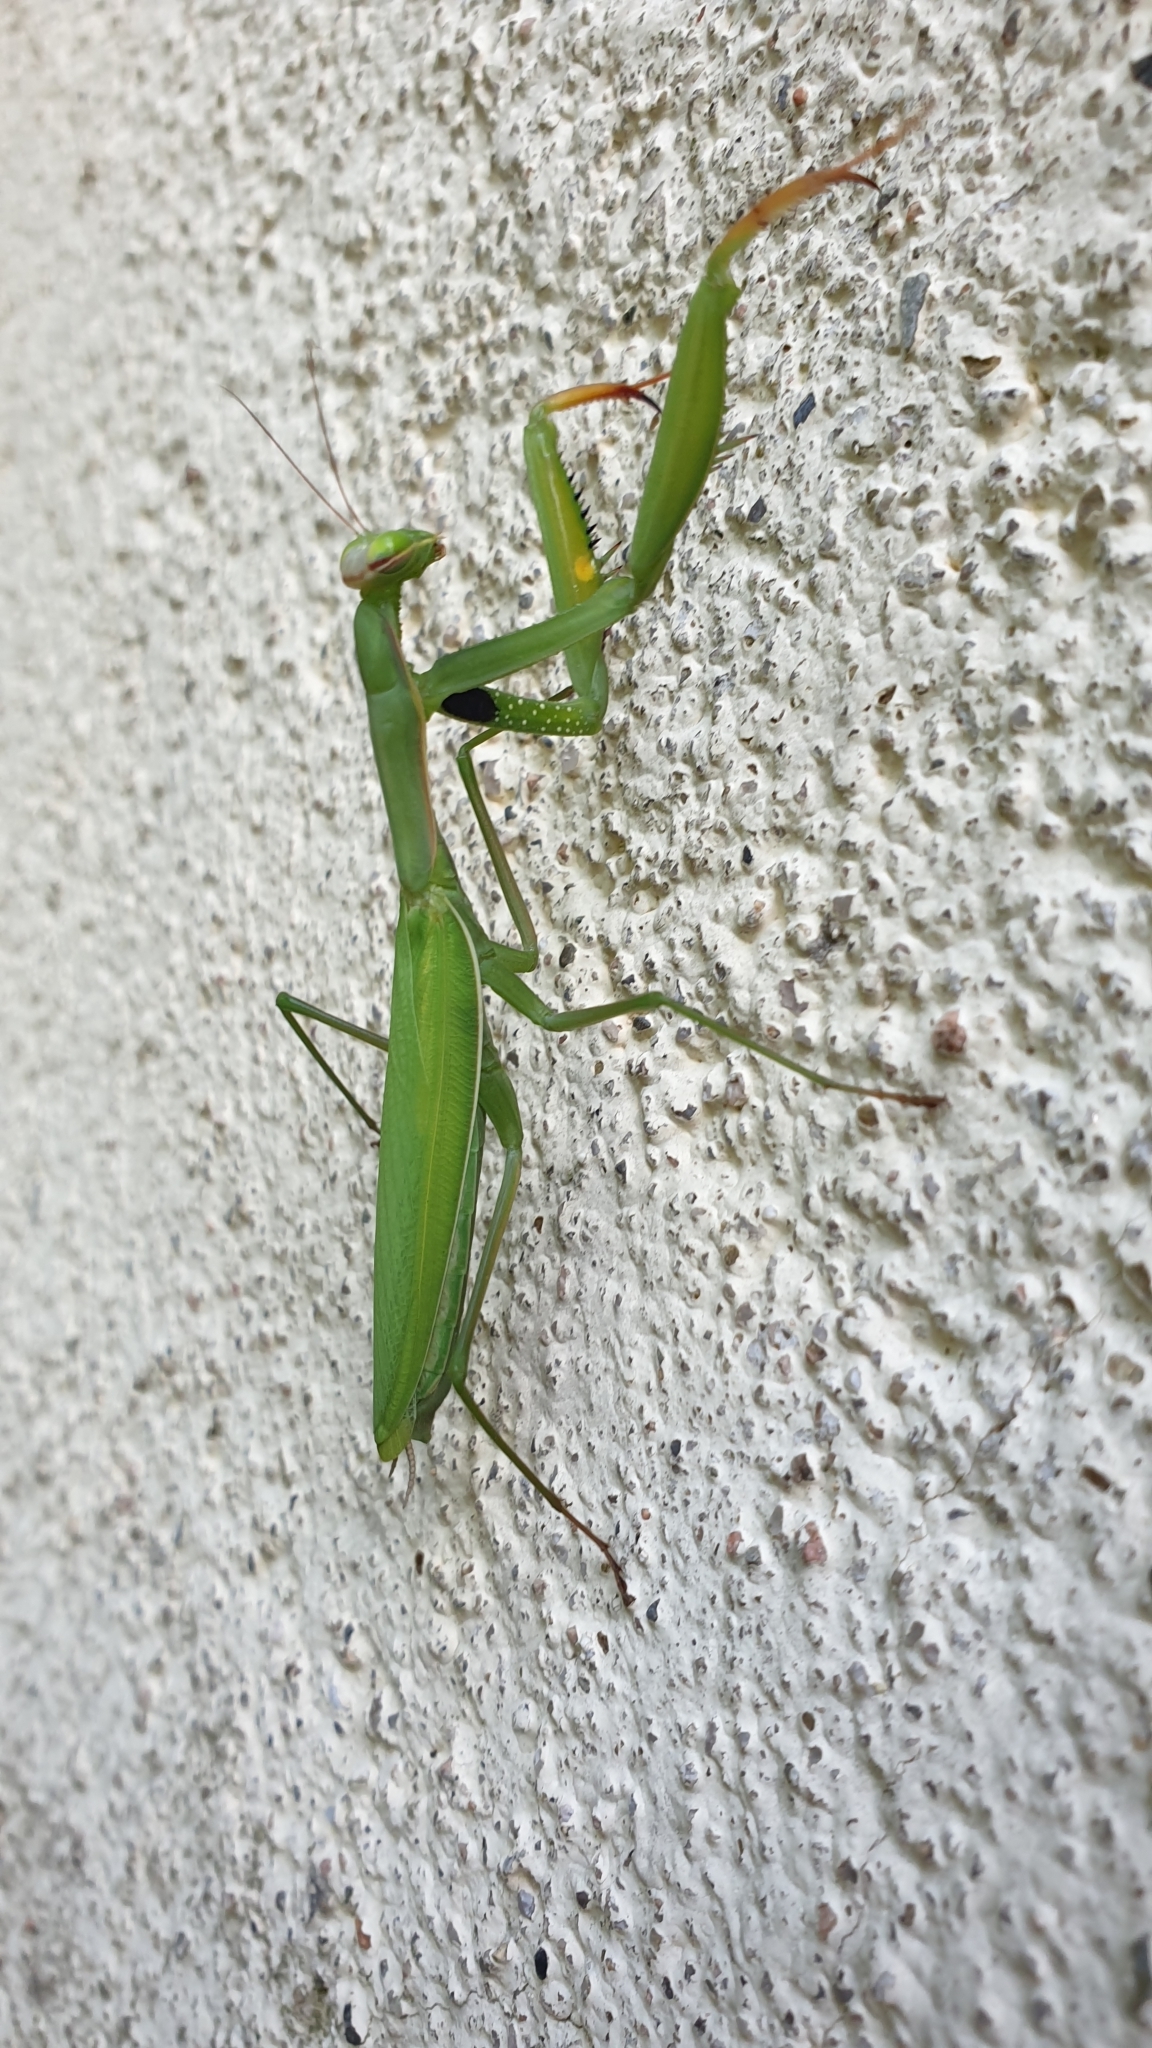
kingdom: Animalia
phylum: Arthropoda
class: Insecta
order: Mantodea
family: Mantidae
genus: Mantis
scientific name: Mantis religiosa
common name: Praying mantis
